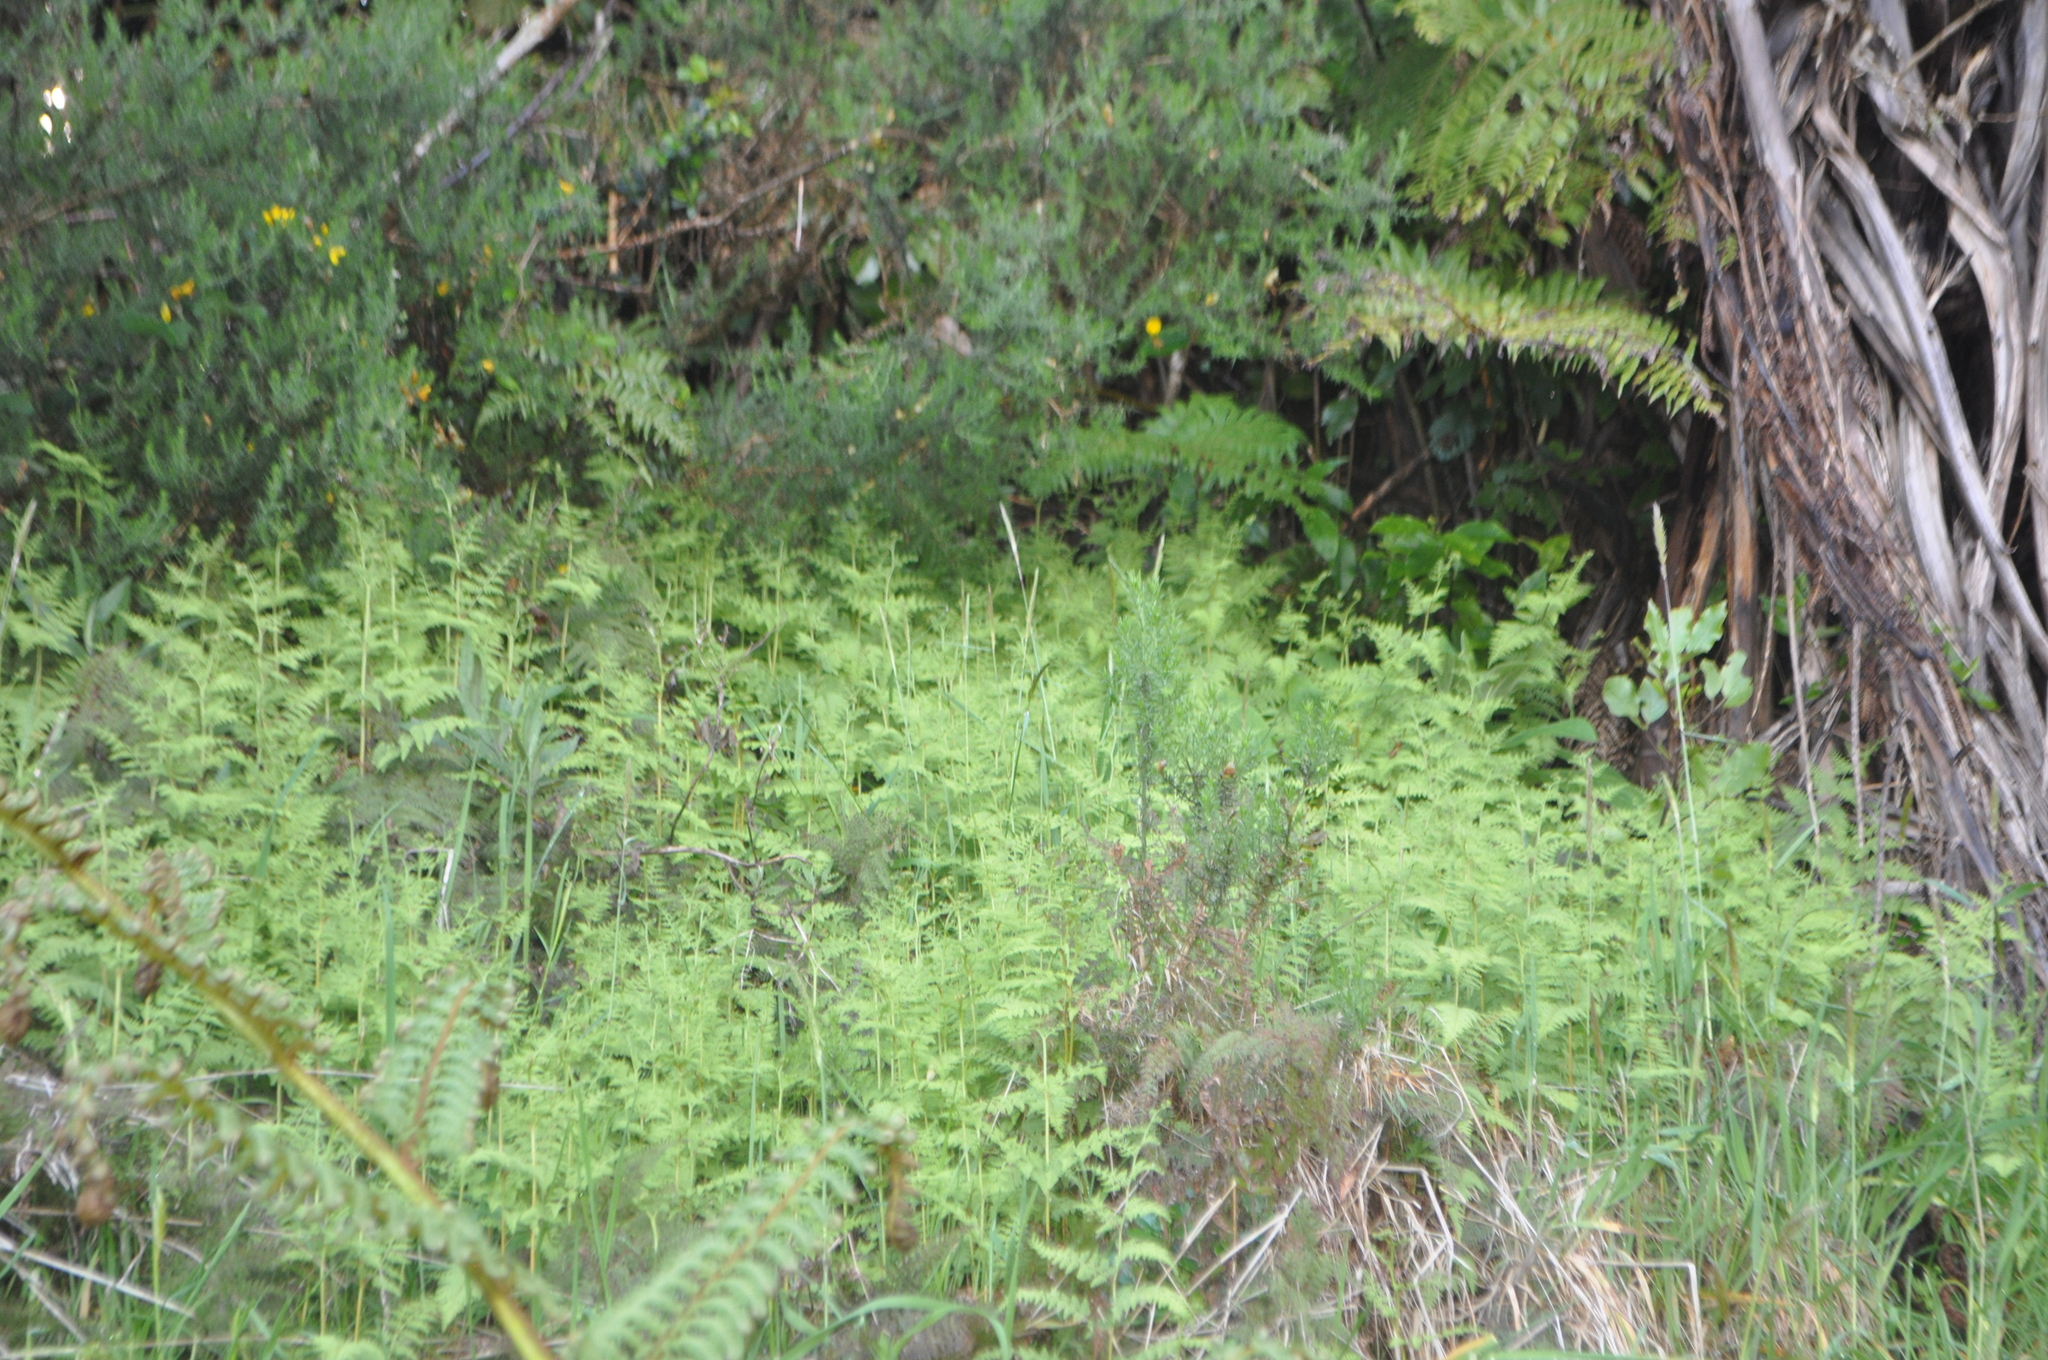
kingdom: Plantae
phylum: Tracheophyta
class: Polypodiopsida
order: Polypodiales
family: Dennstaedtiaceae
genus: Histiopteris
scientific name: Histiopteris incisa
